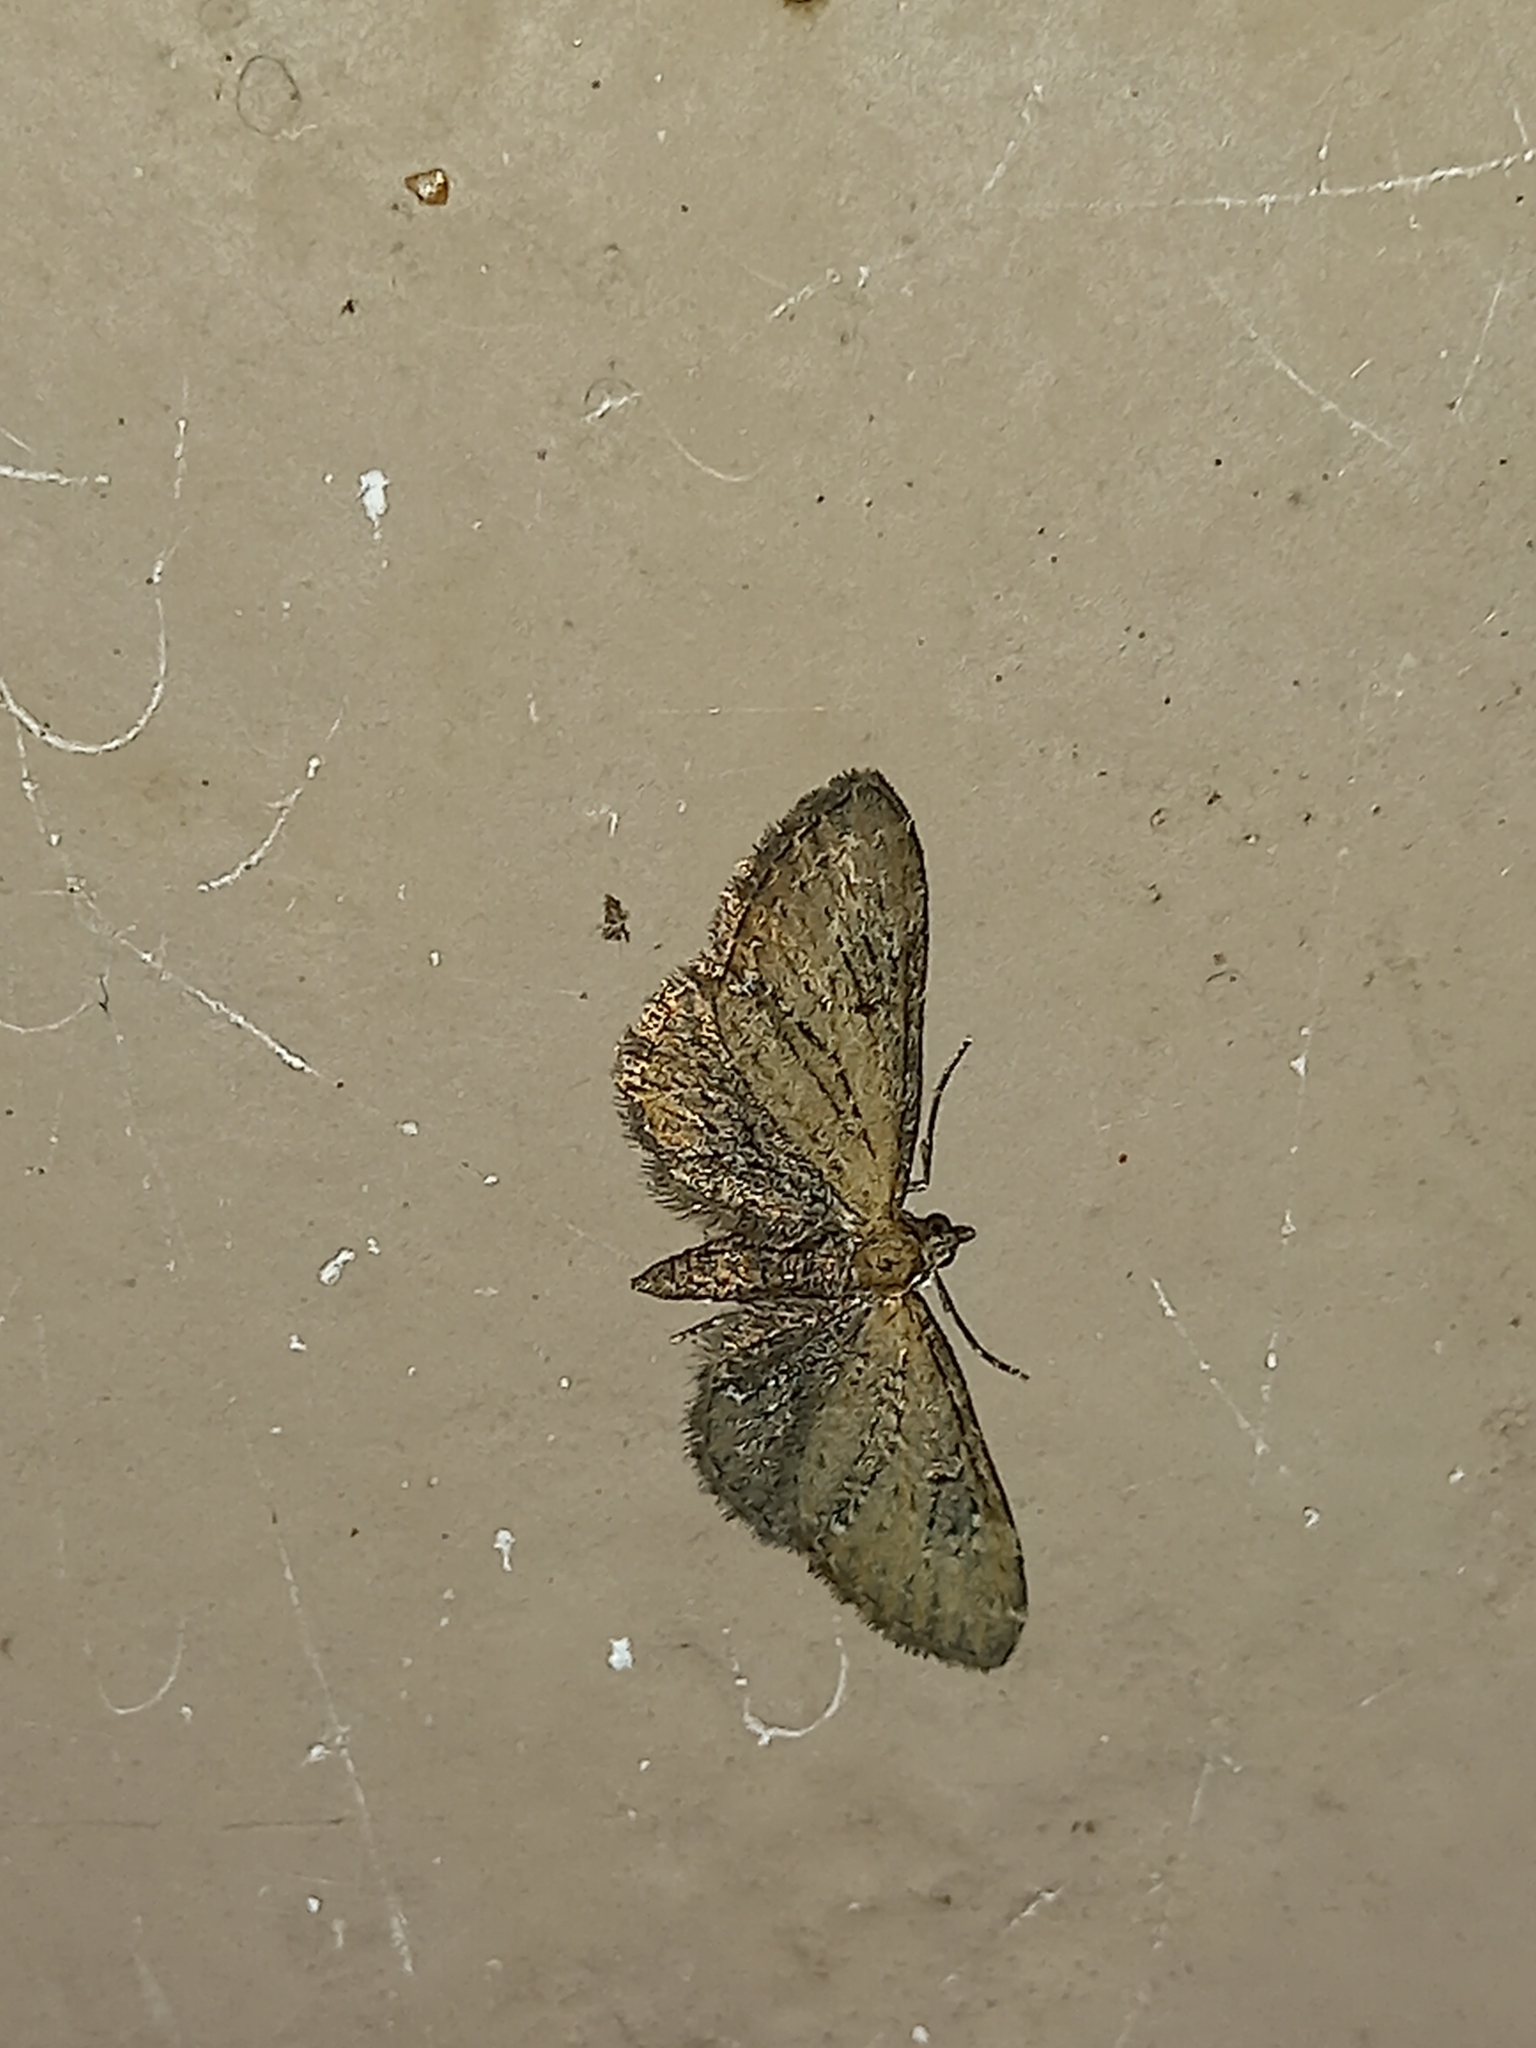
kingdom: Animalia
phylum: Arthropoda
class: Insecta
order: Lepidoptera
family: Geometridae
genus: Eupithecia
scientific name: Eupithecia vulgata
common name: Common pug
